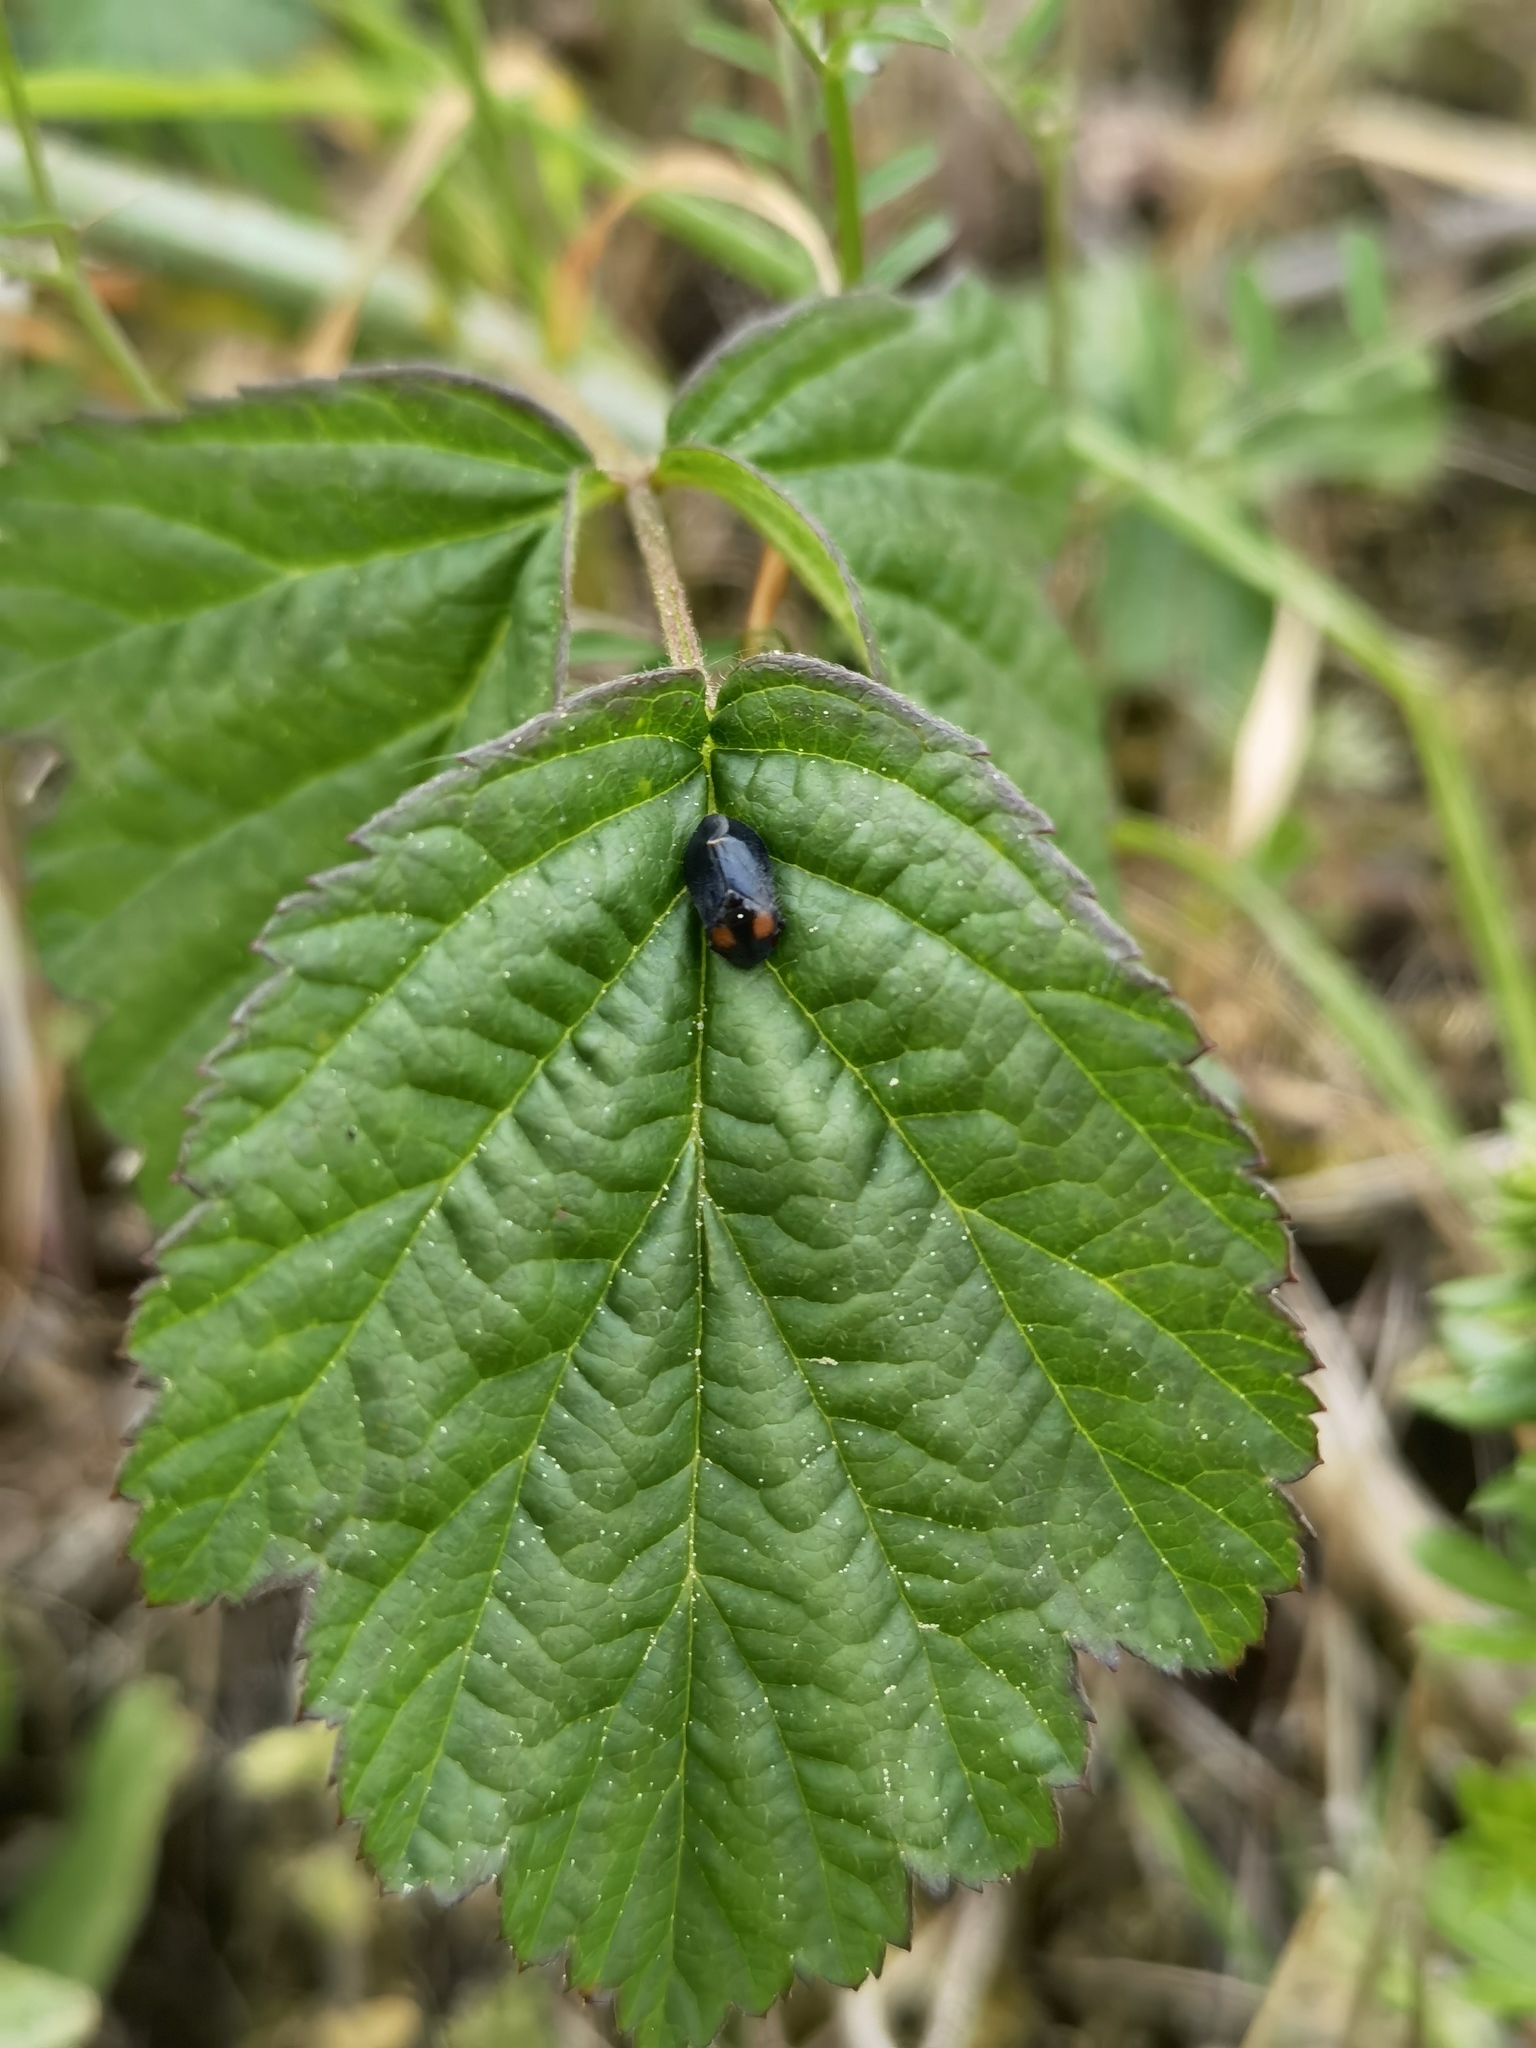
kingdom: Animalia
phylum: Arthropoda
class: Insecta
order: Hemiptera
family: Cicadellidae
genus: Penthimia
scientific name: Penthimia nigra
